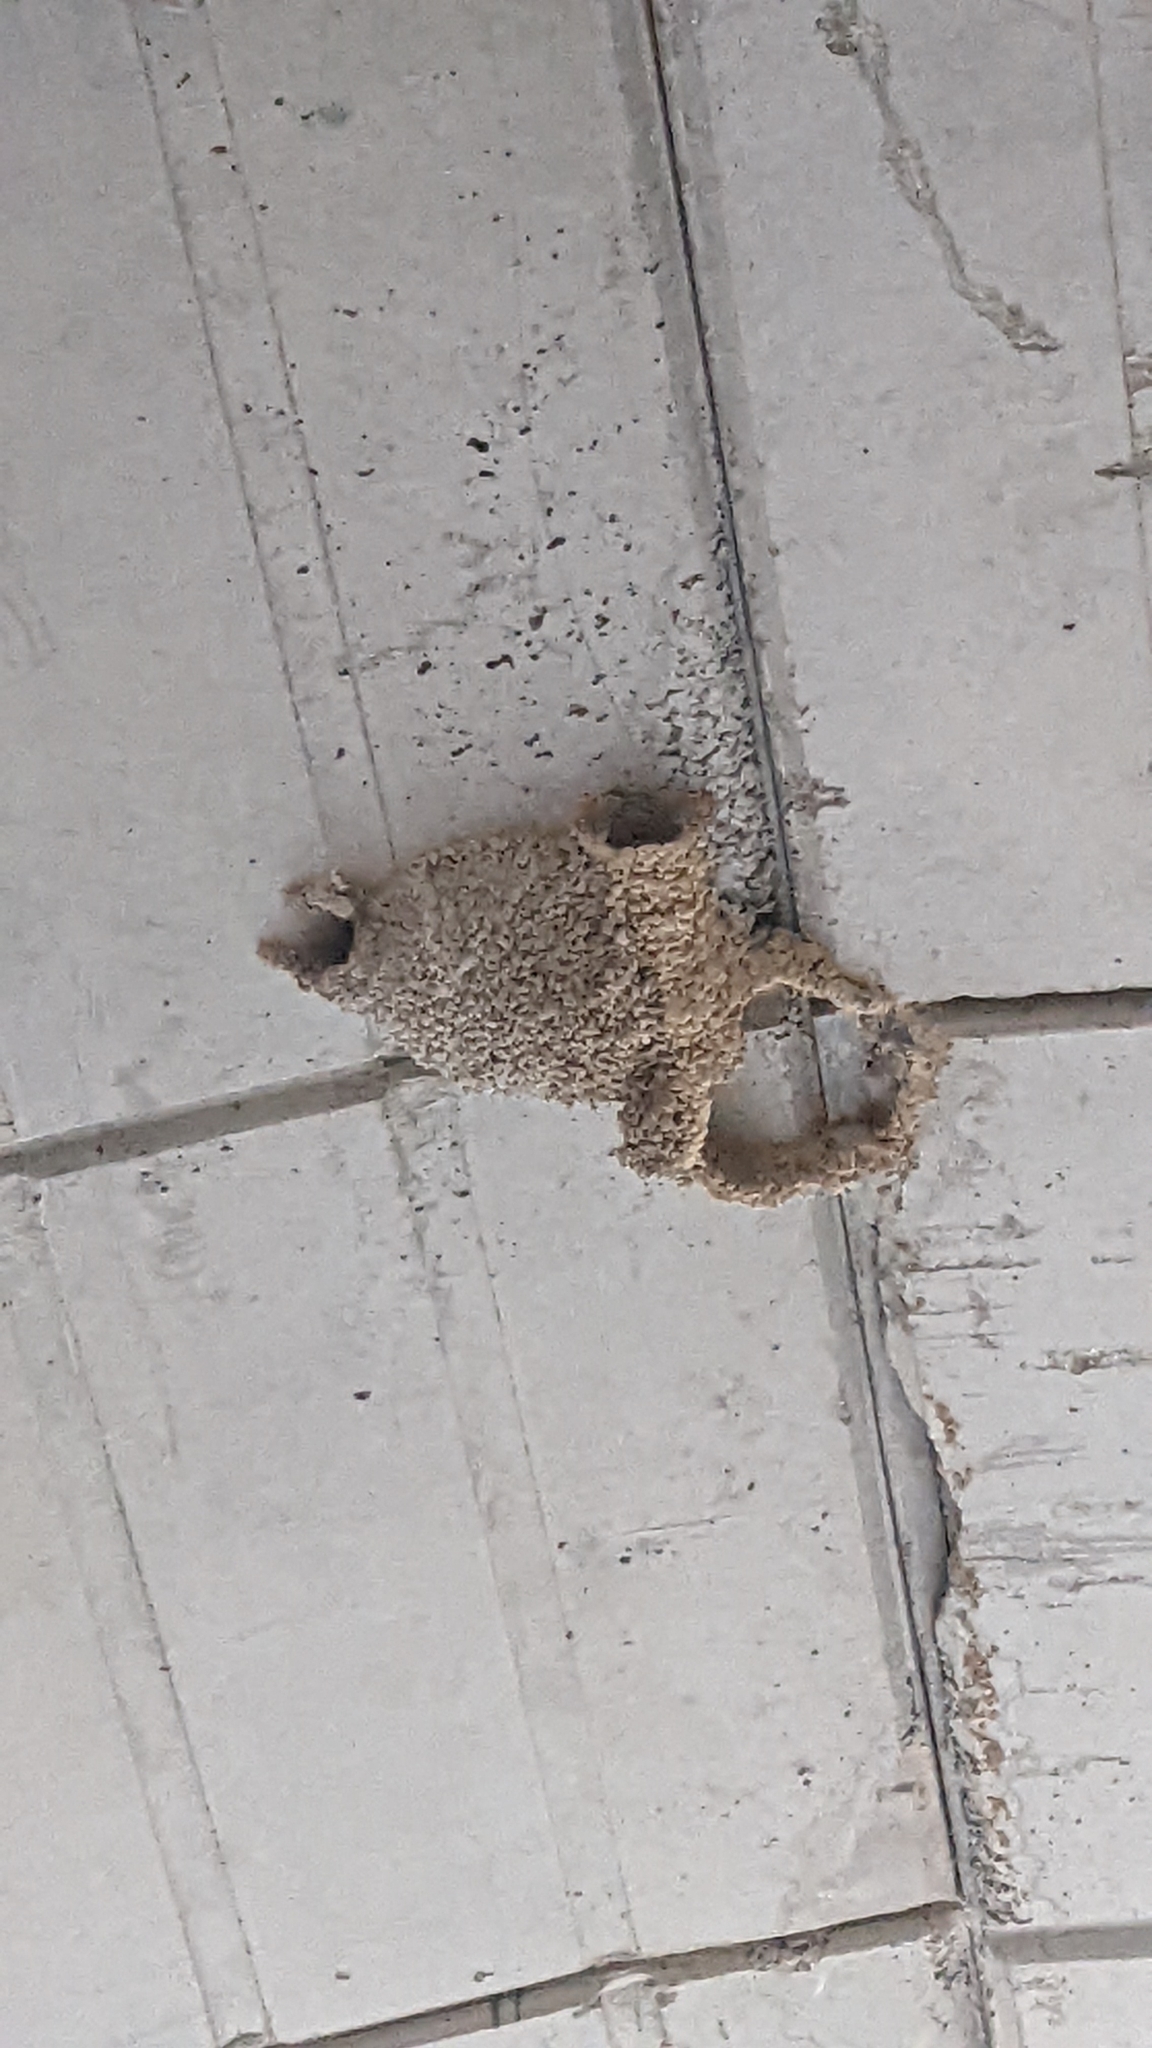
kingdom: Animalia
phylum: Chordata
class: Aves
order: Passeriformes
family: Hirundinidae
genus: Cecropis
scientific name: Cecropis daurica
